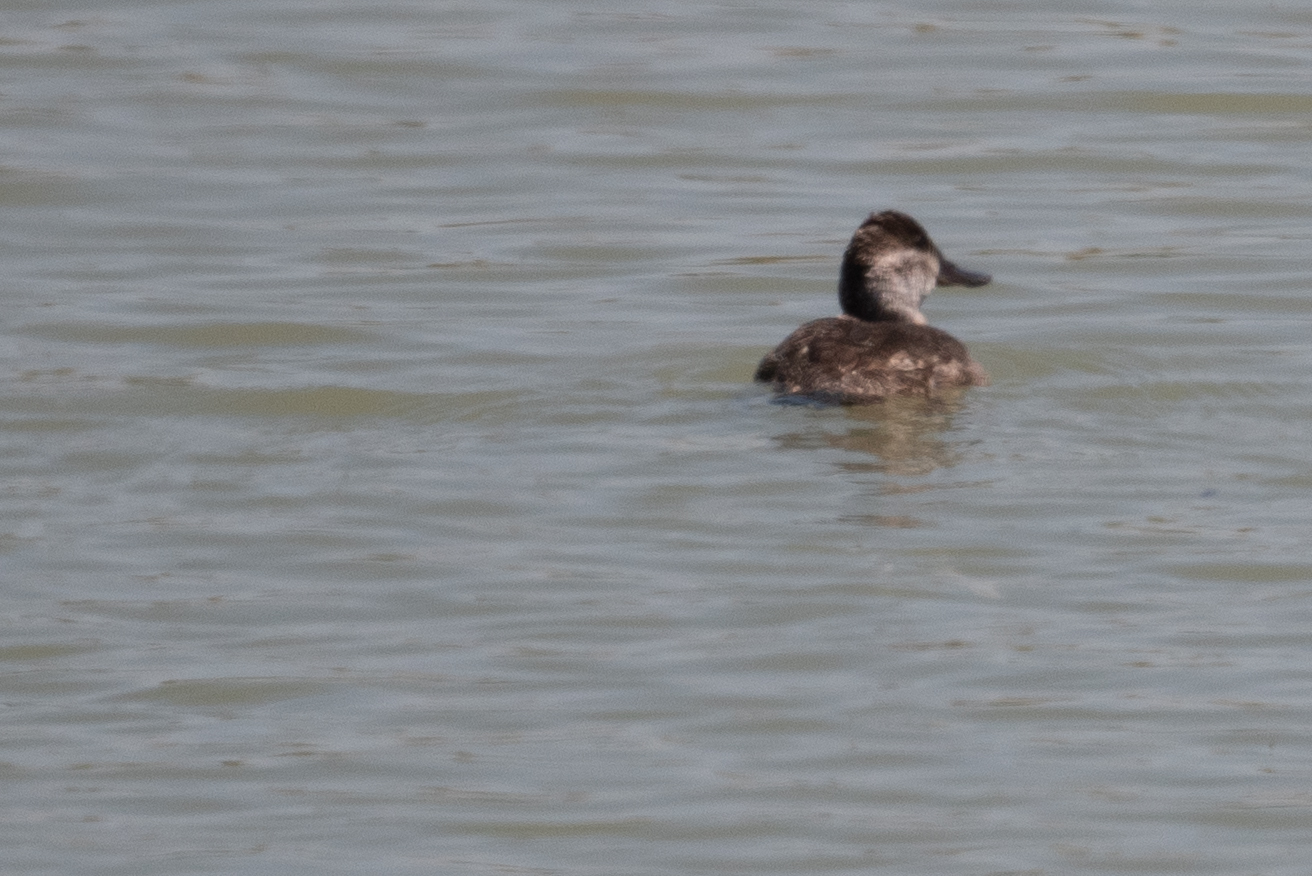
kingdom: Animalia
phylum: Chordata
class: Aves
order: Anseriformes
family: Anatidae
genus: Oxyura
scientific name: Oxyura jamaicensis
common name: Ruddy duck
